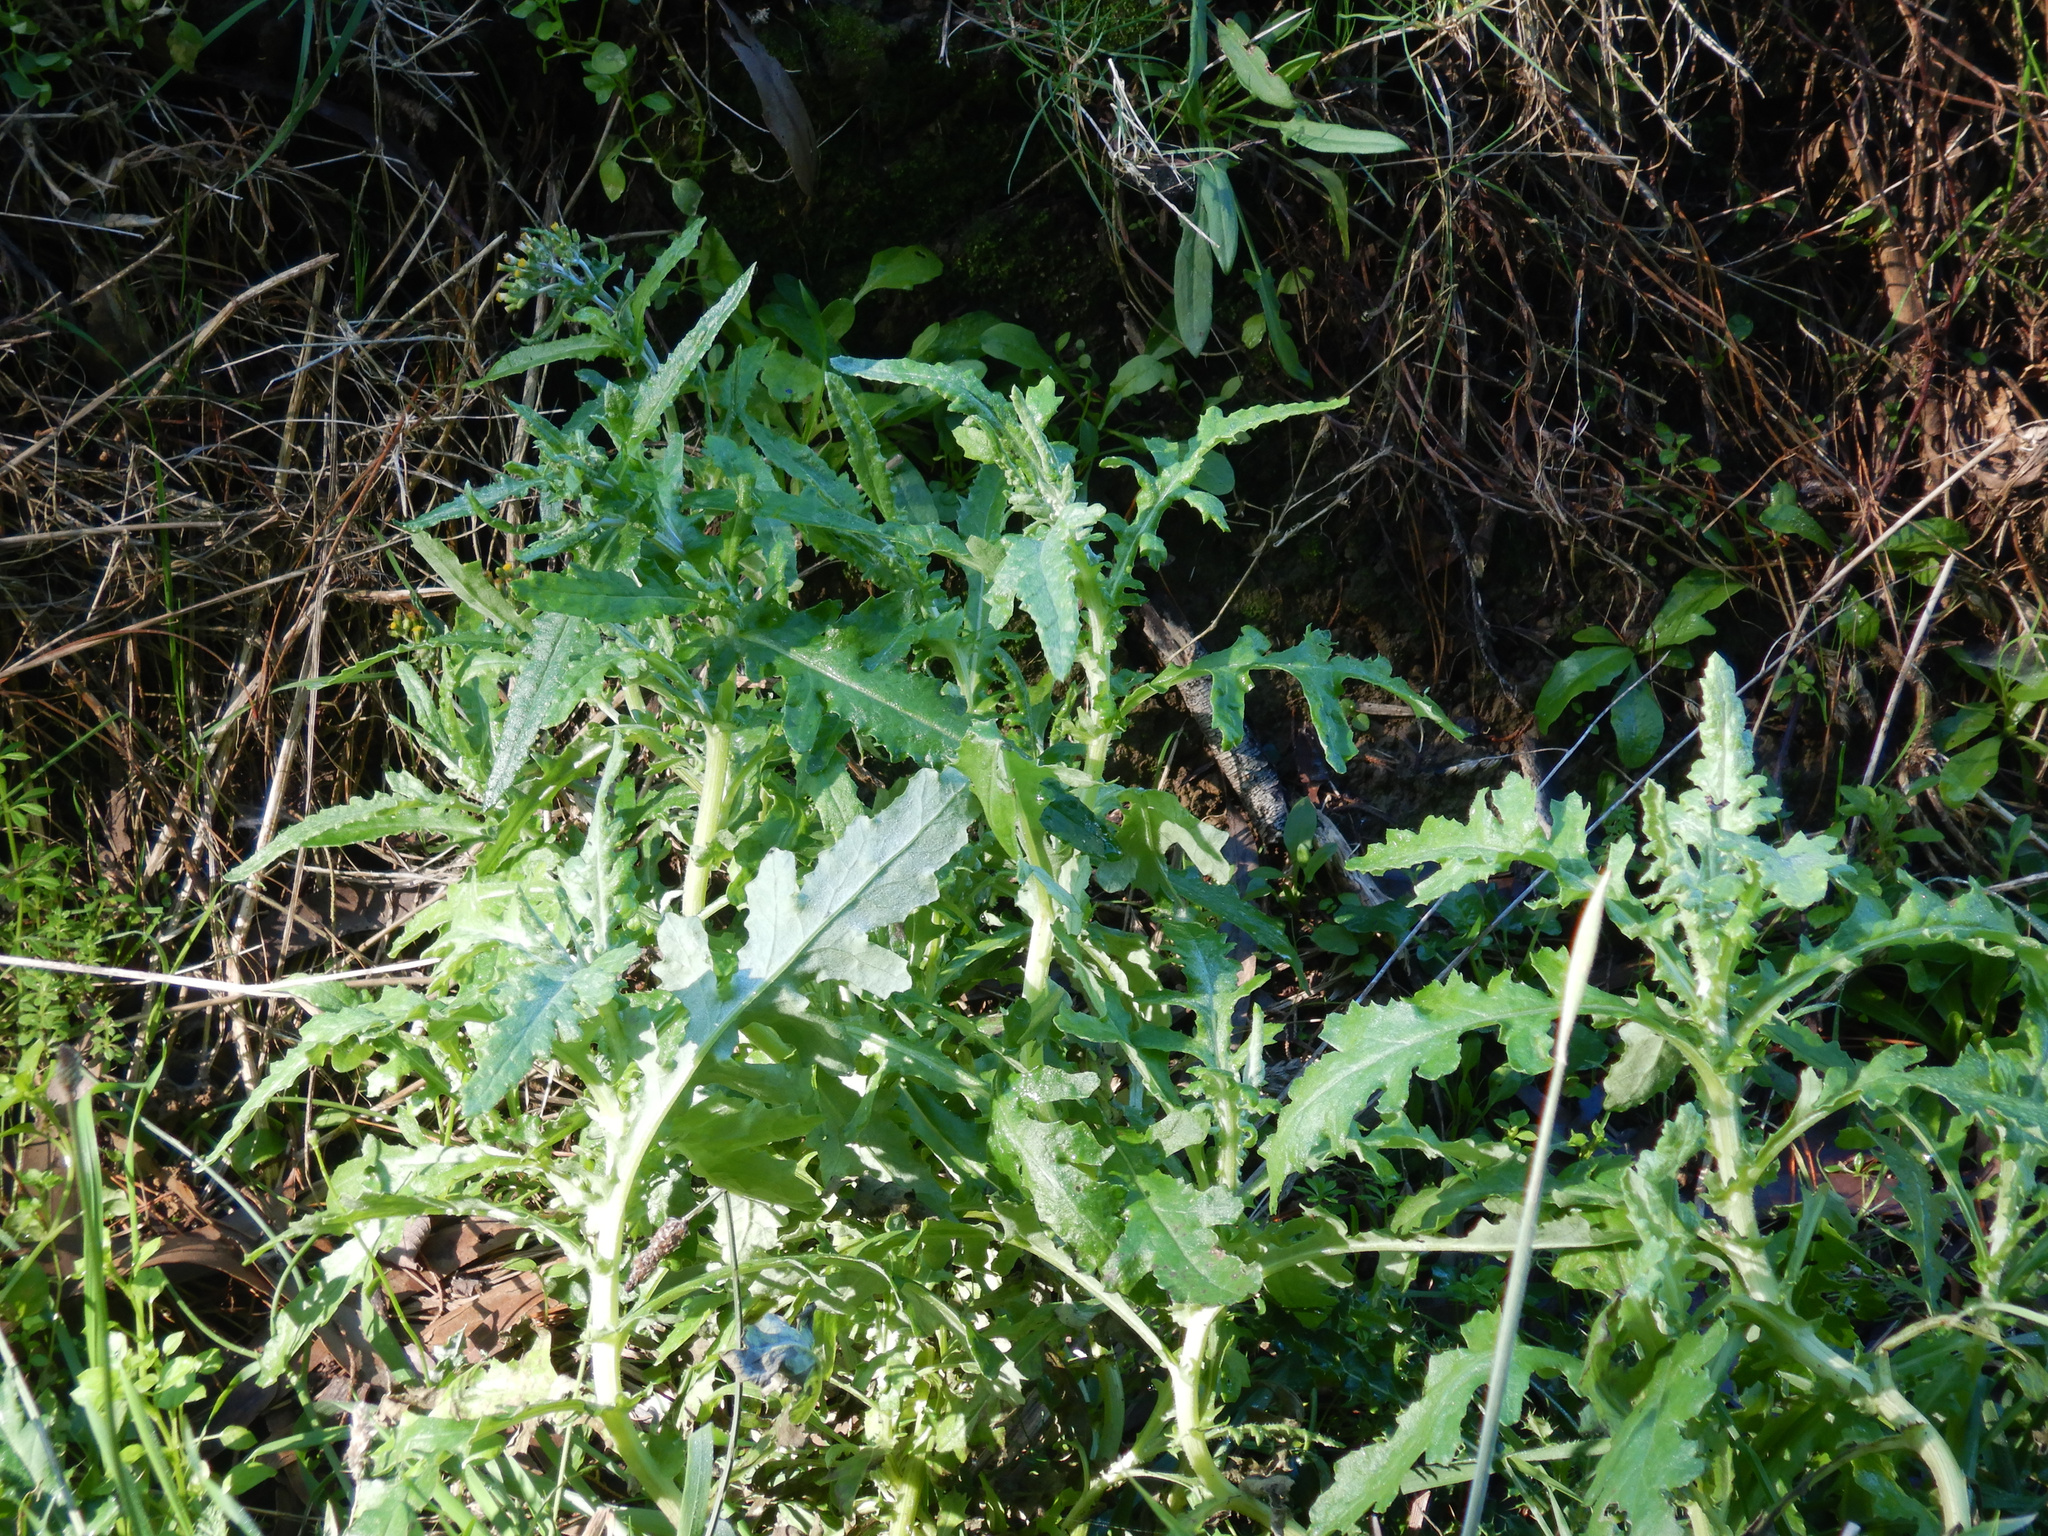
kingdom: Plantae
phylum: Tracheophyta
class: Magnoliopsida
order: Asterales
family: Asteraceae
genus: Senecio
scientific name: Senecio glomeratus
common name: Cutleaf burnweed
